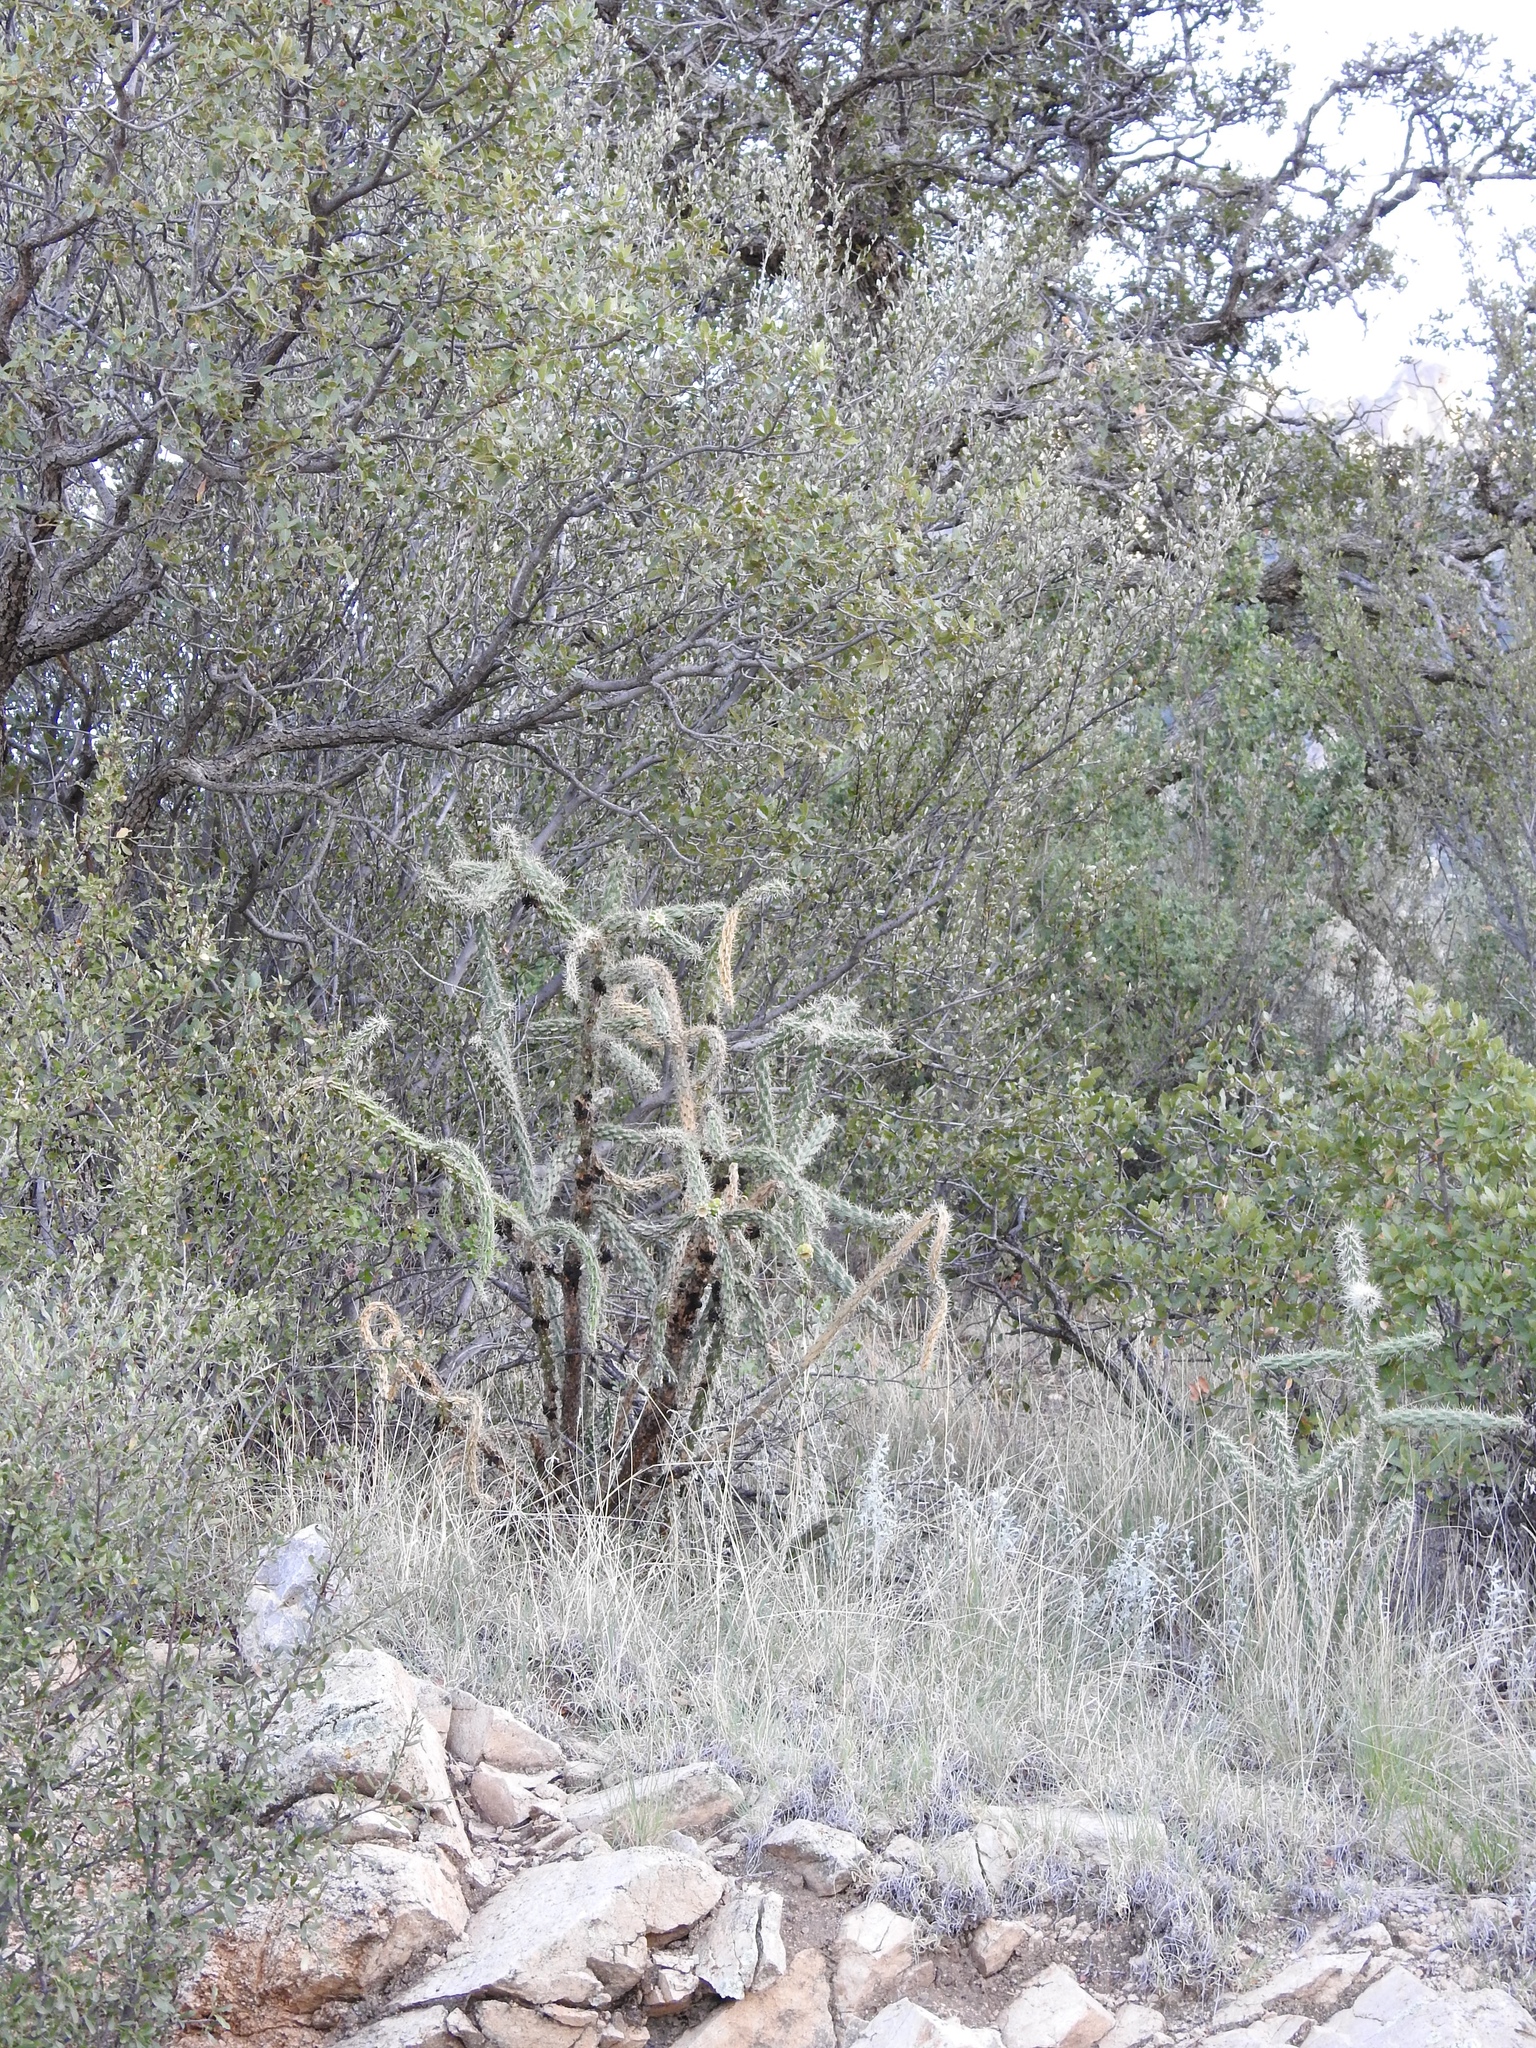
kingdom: Plantae
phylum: Tracheophyta
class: Magnoliopsida
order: Caryophyllales
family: Cactaceae
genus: Cylindropuntia
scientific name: Cylindropuntia imbricata
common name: Candelabrum cactus
